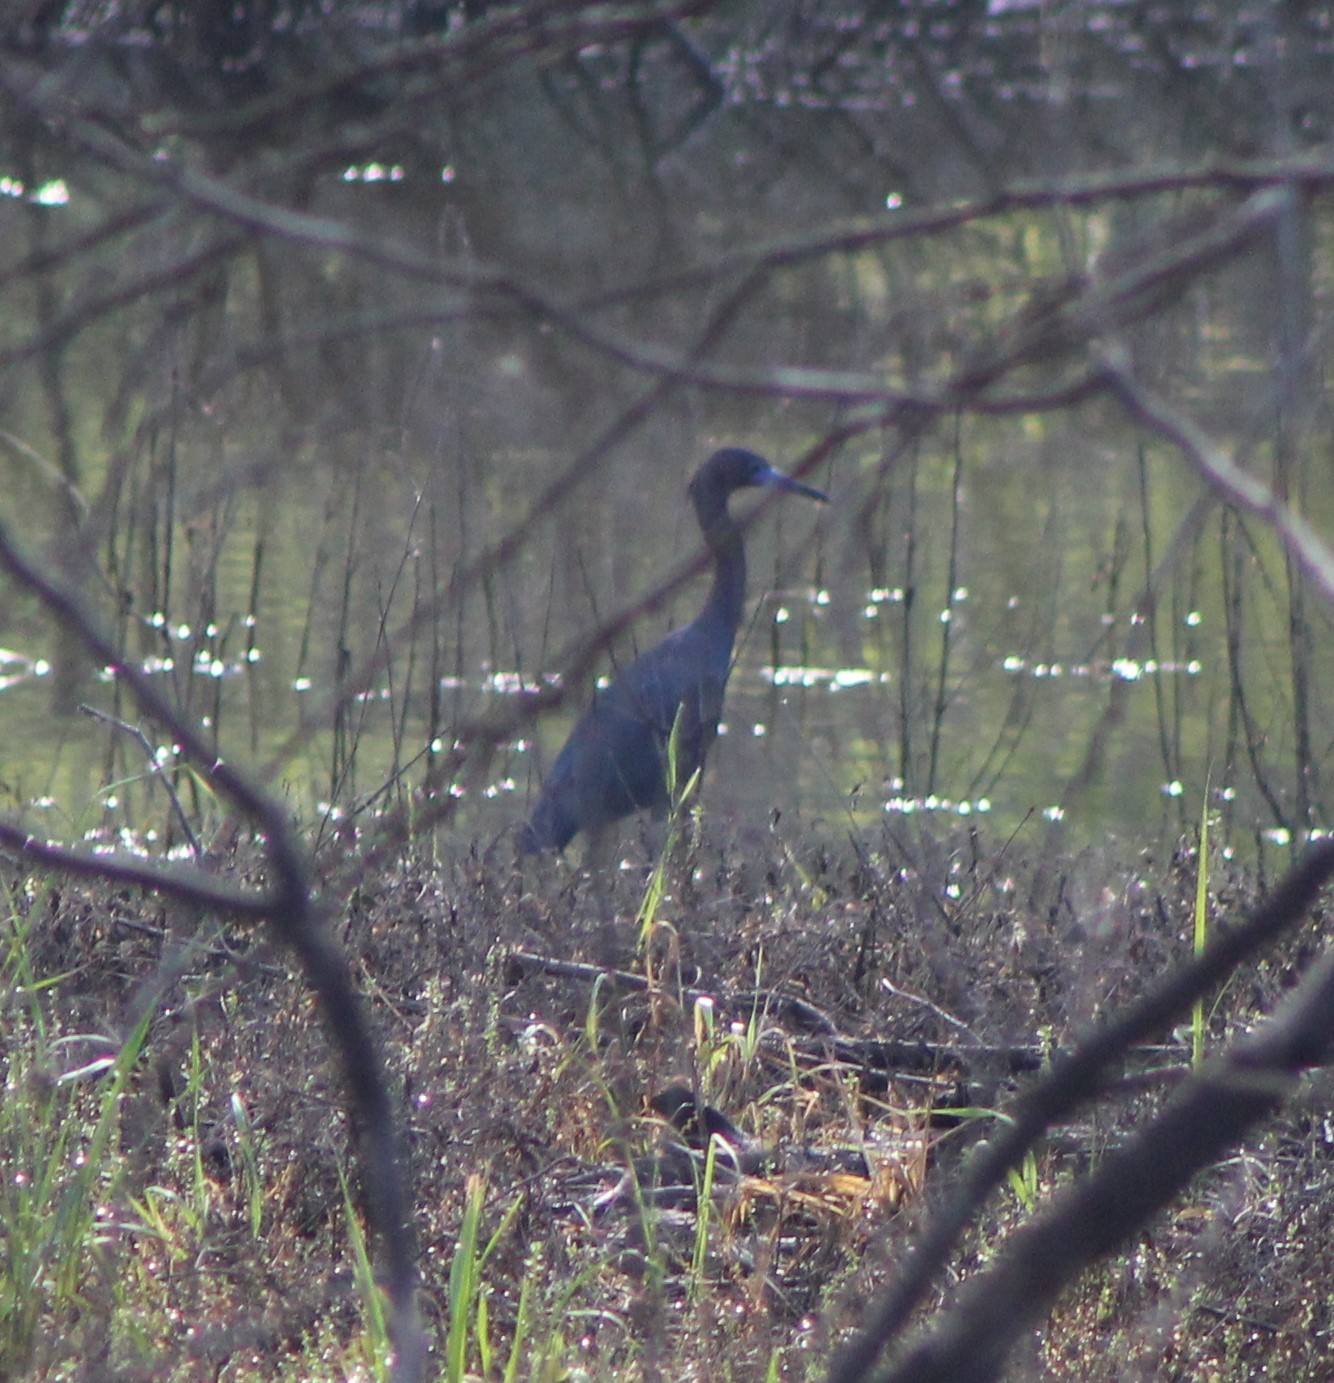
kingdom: Animalia
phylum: Chordata
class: Aves
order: Pelecaniformes
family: Ardeidae
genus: Egretta
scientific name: Egretta caerulea
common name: Little blue heron
